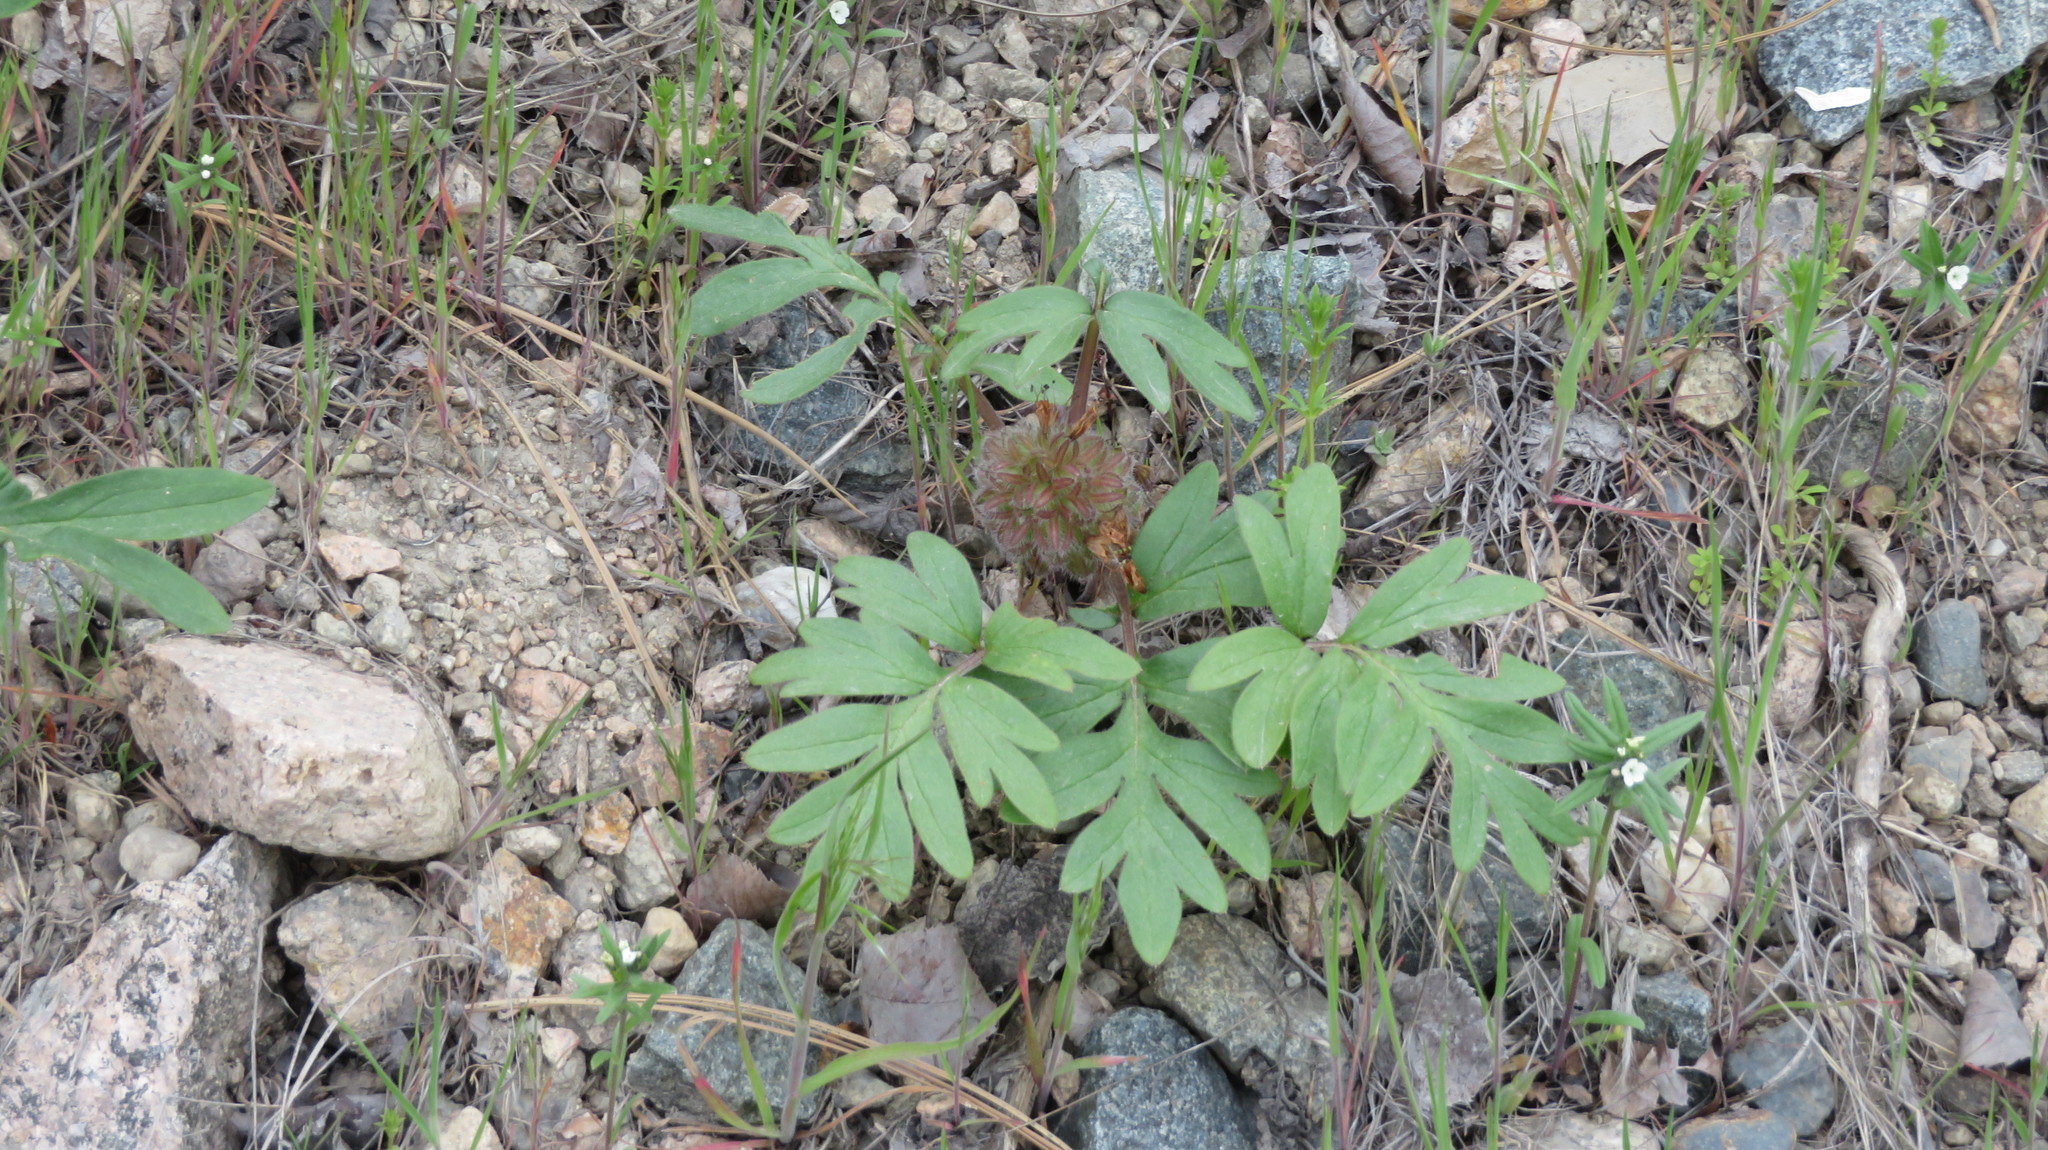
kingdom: Plantae
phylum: Tracheophyta
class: Magnoliopsida
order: Boraginales
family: Hydrophyllaceae
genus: Hydrophyllum
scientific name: Hydrophyllum capitatum
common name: Woollen-breeches
